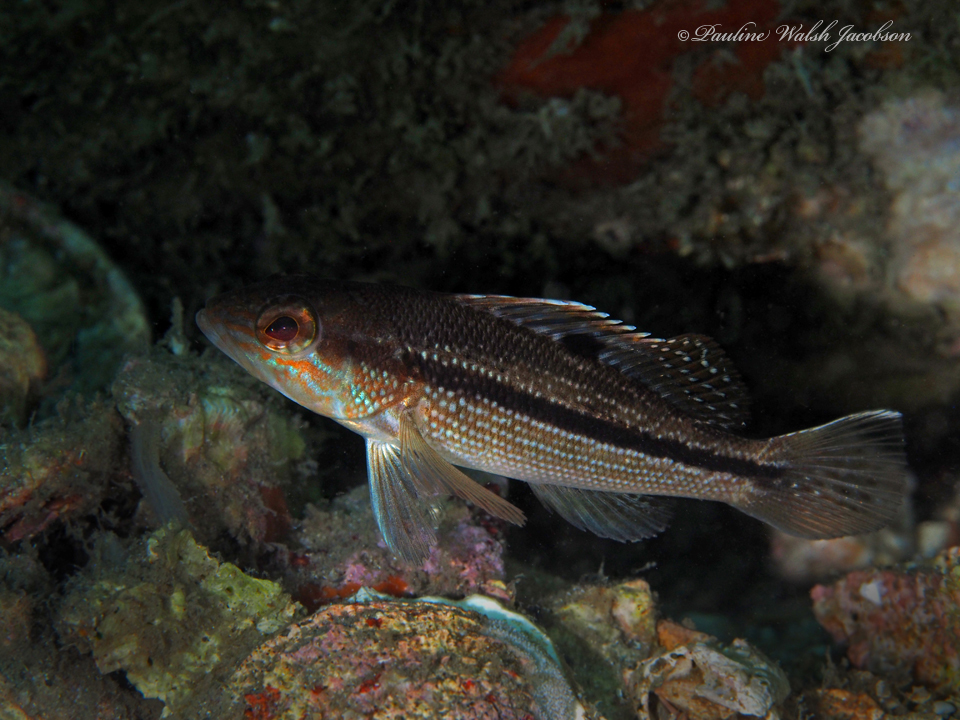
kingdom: Animalia
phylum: Chordata
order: Perciformes
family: Serranidae
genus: Centropristis
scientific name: Centropristis striata
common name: Black sea bass
